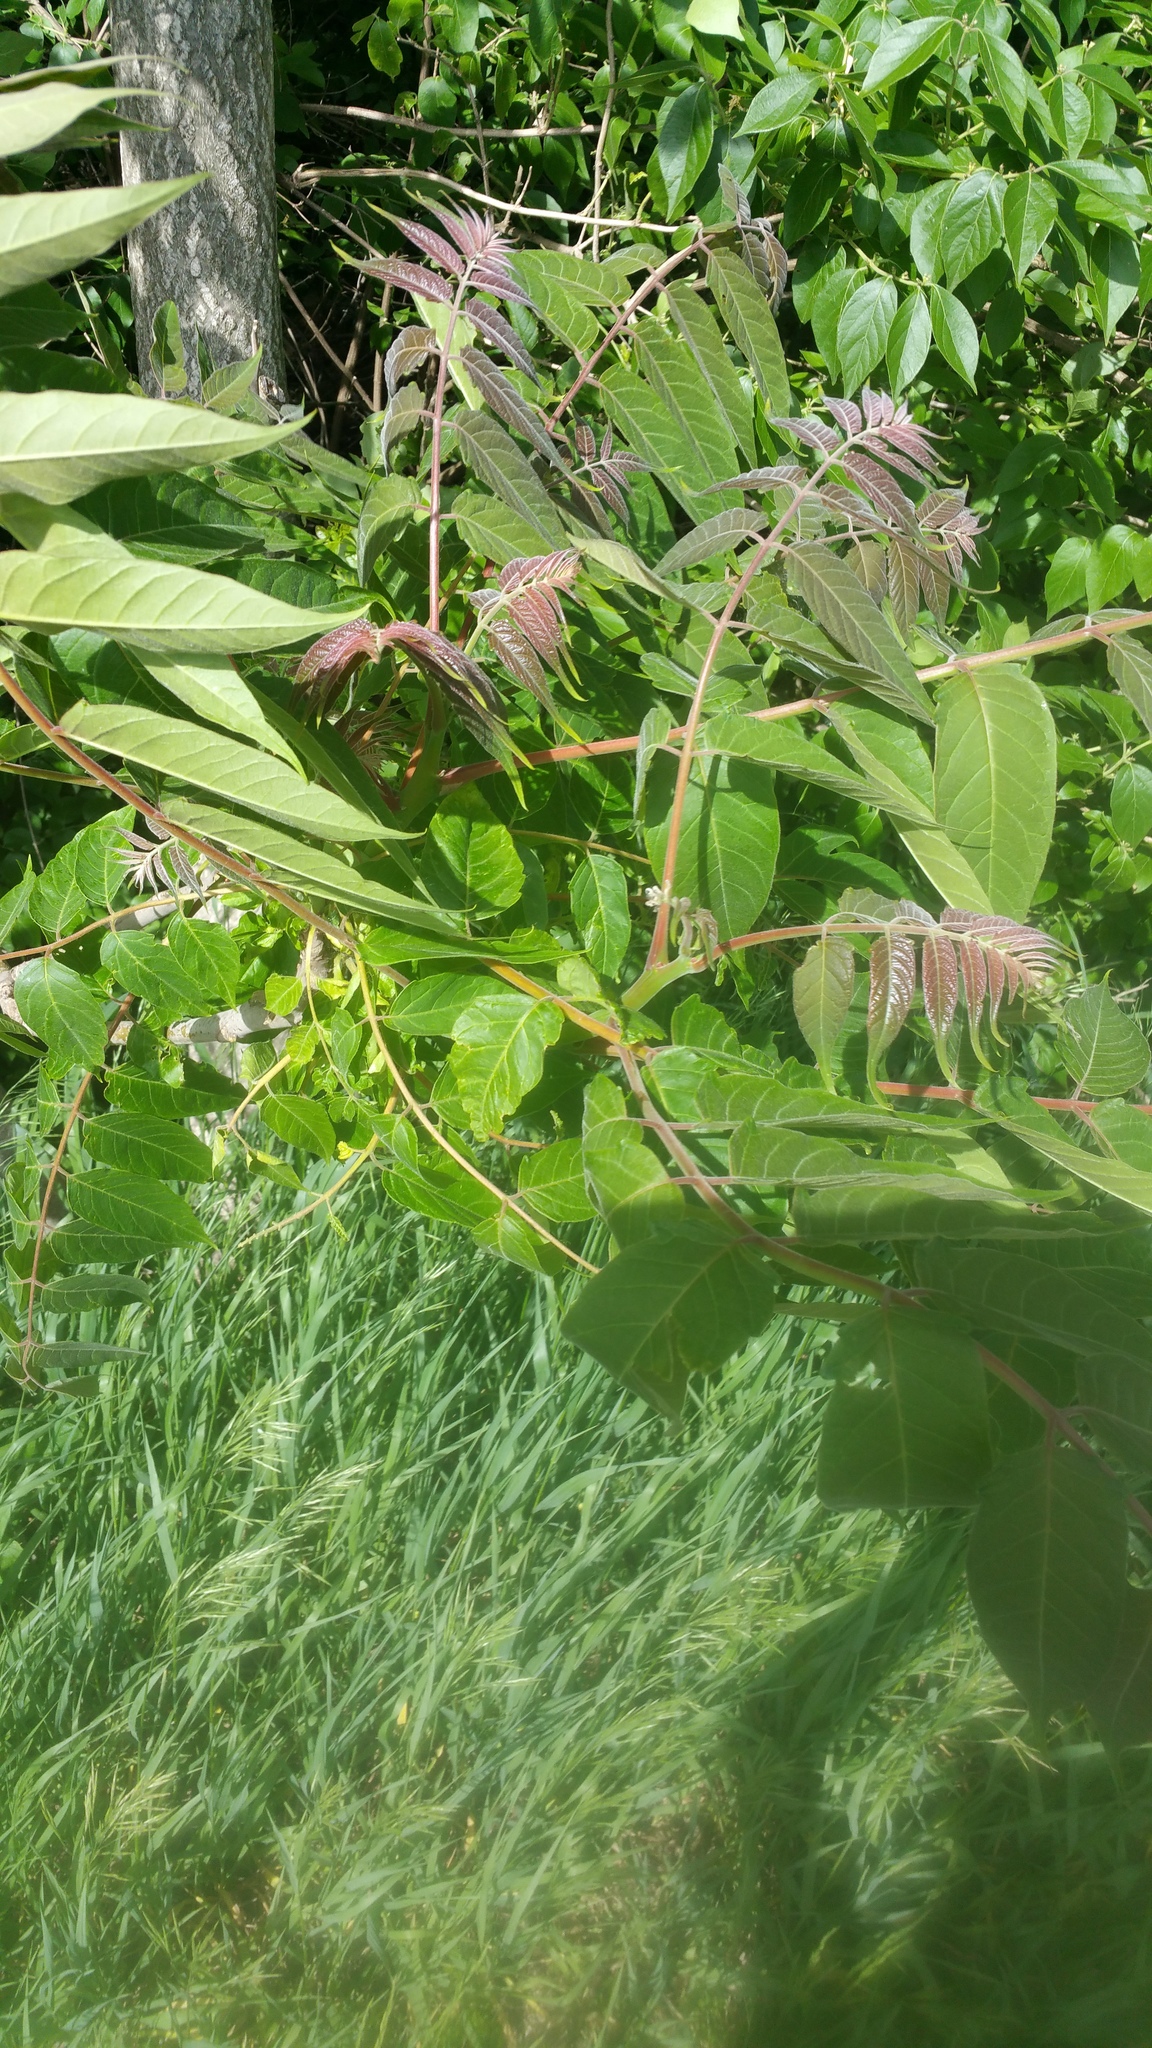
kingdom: Plantae
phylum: Tracheophyta
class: Magnoliopsida
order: Sapindales
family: Simaroubaceae
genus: Ailanthus
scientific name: Ailanthus altissima
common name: Tree-of-heaven
